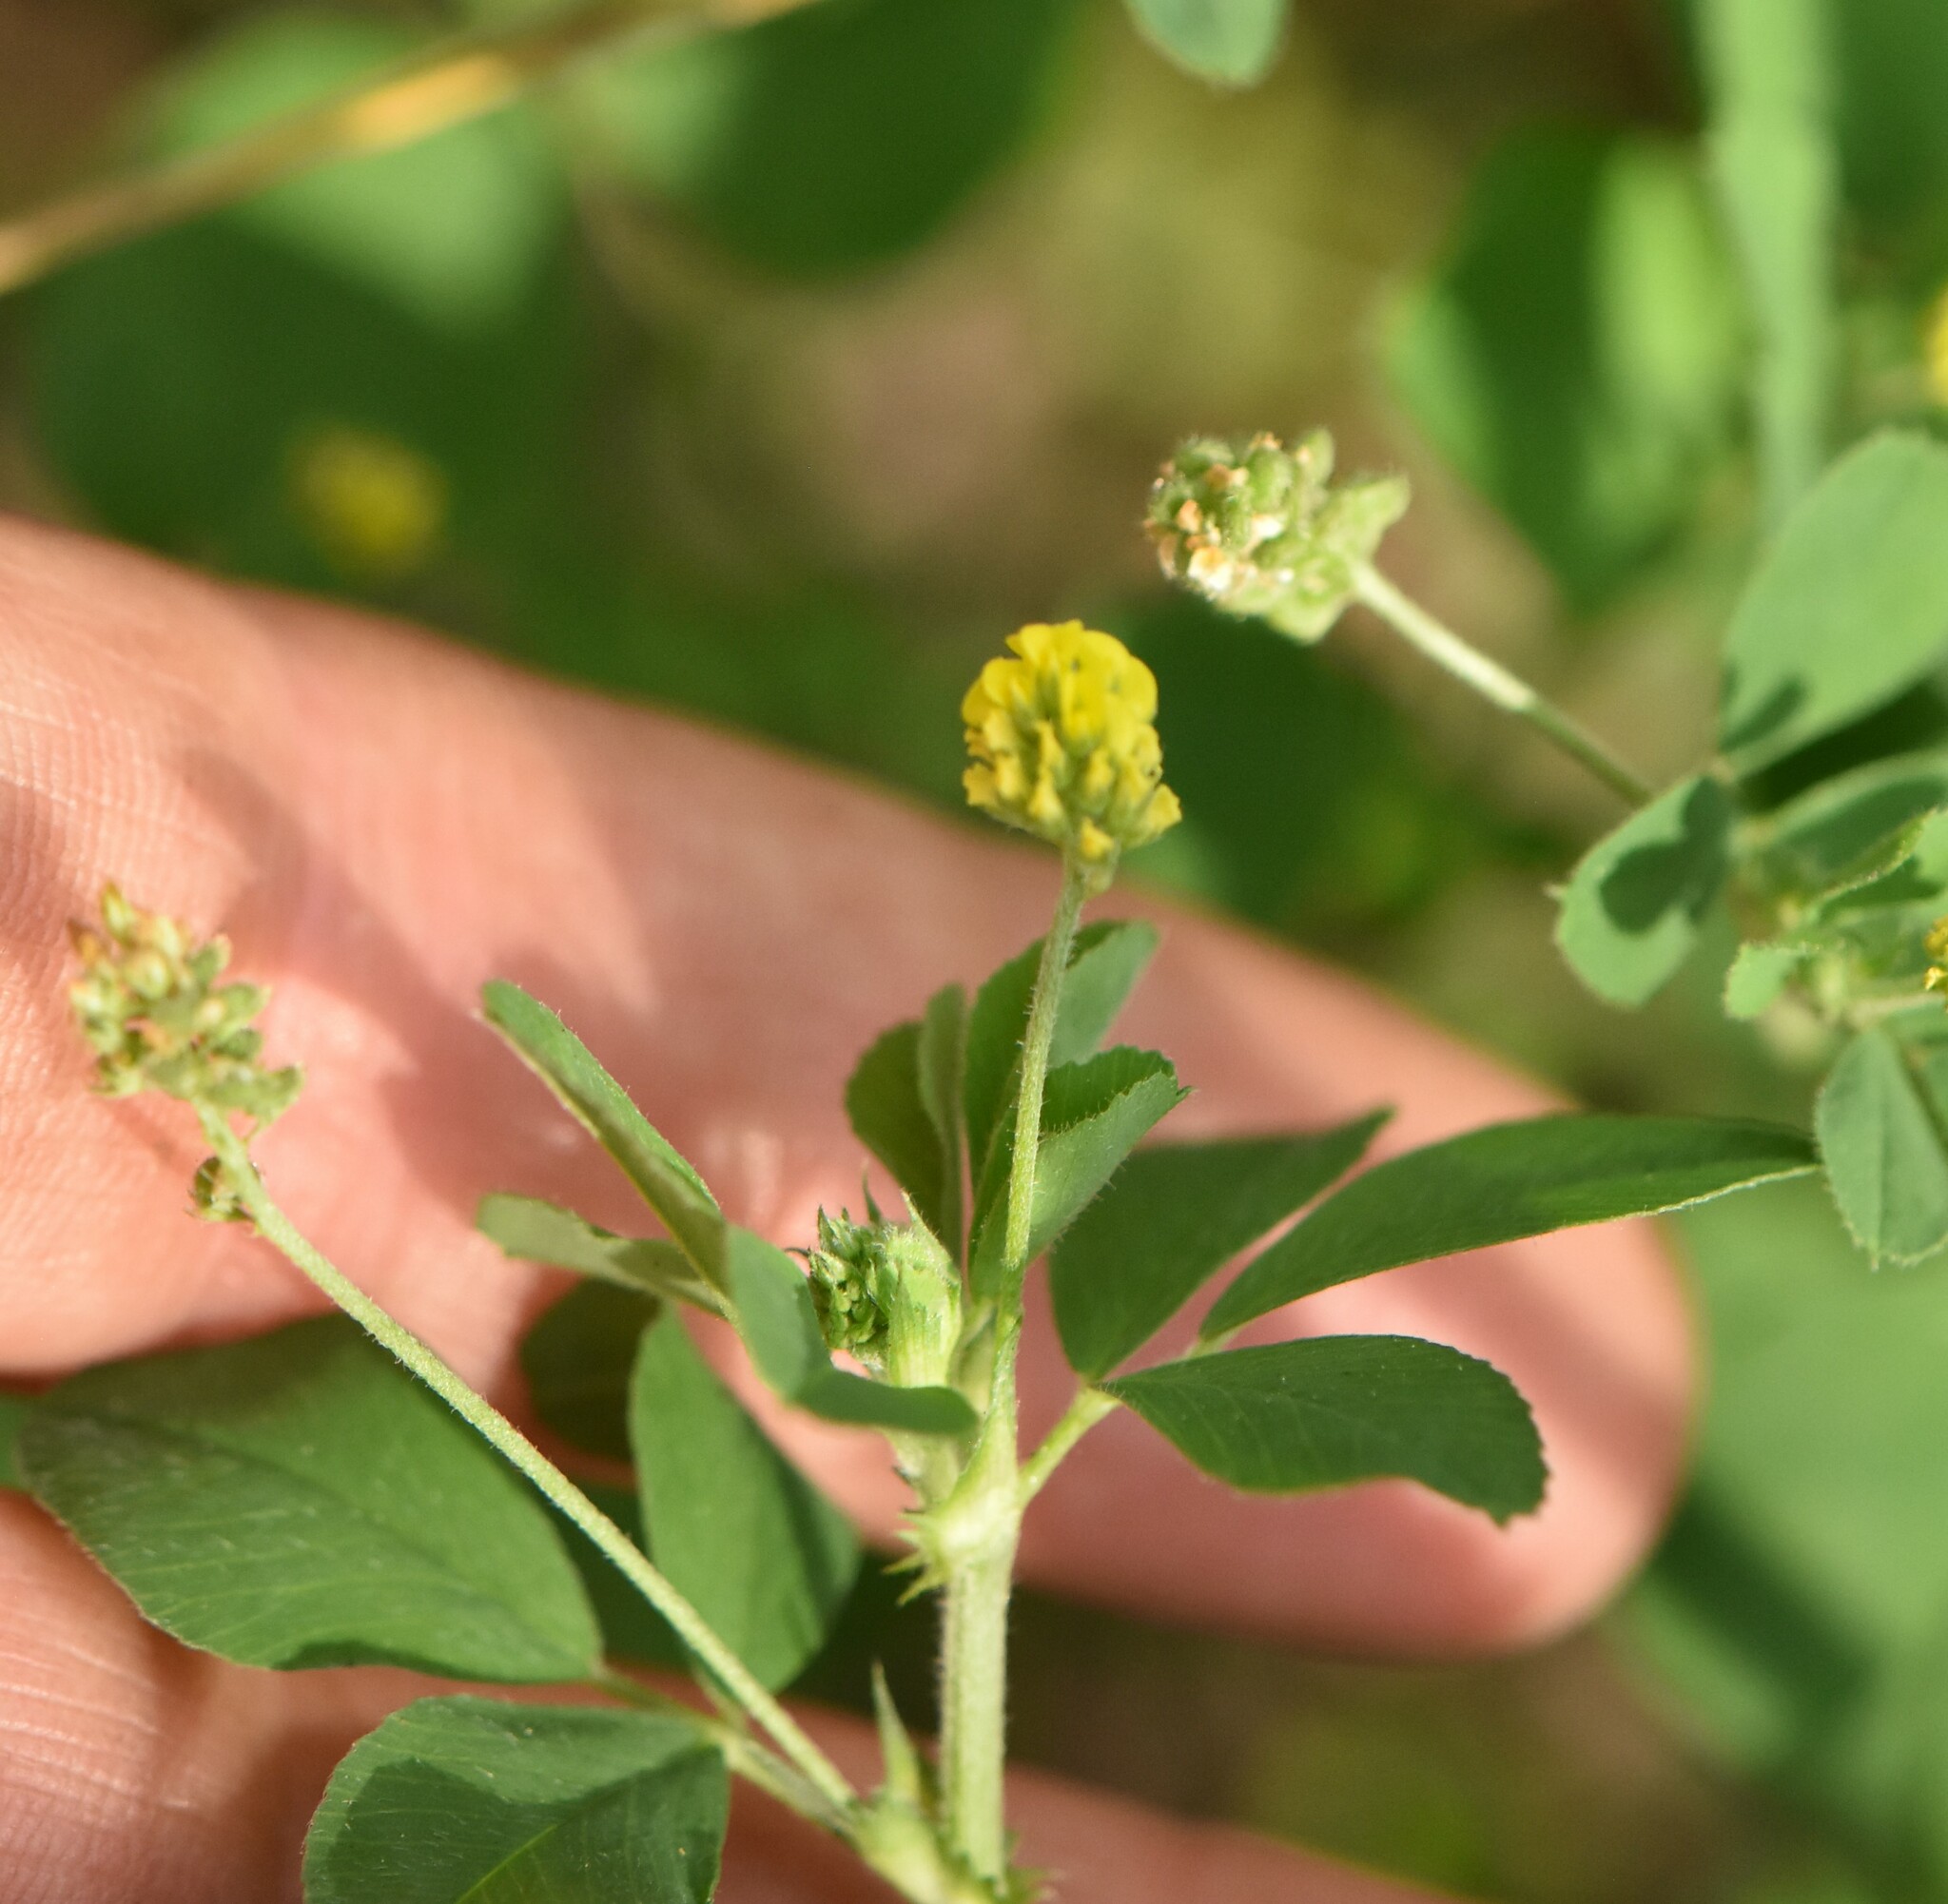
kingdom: Plantae
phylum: Tracheophyta
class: Magnoliopsida
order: Fabales
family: Fabaceae
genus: Medicago
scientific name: Medicago lupulina
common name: Black medick
